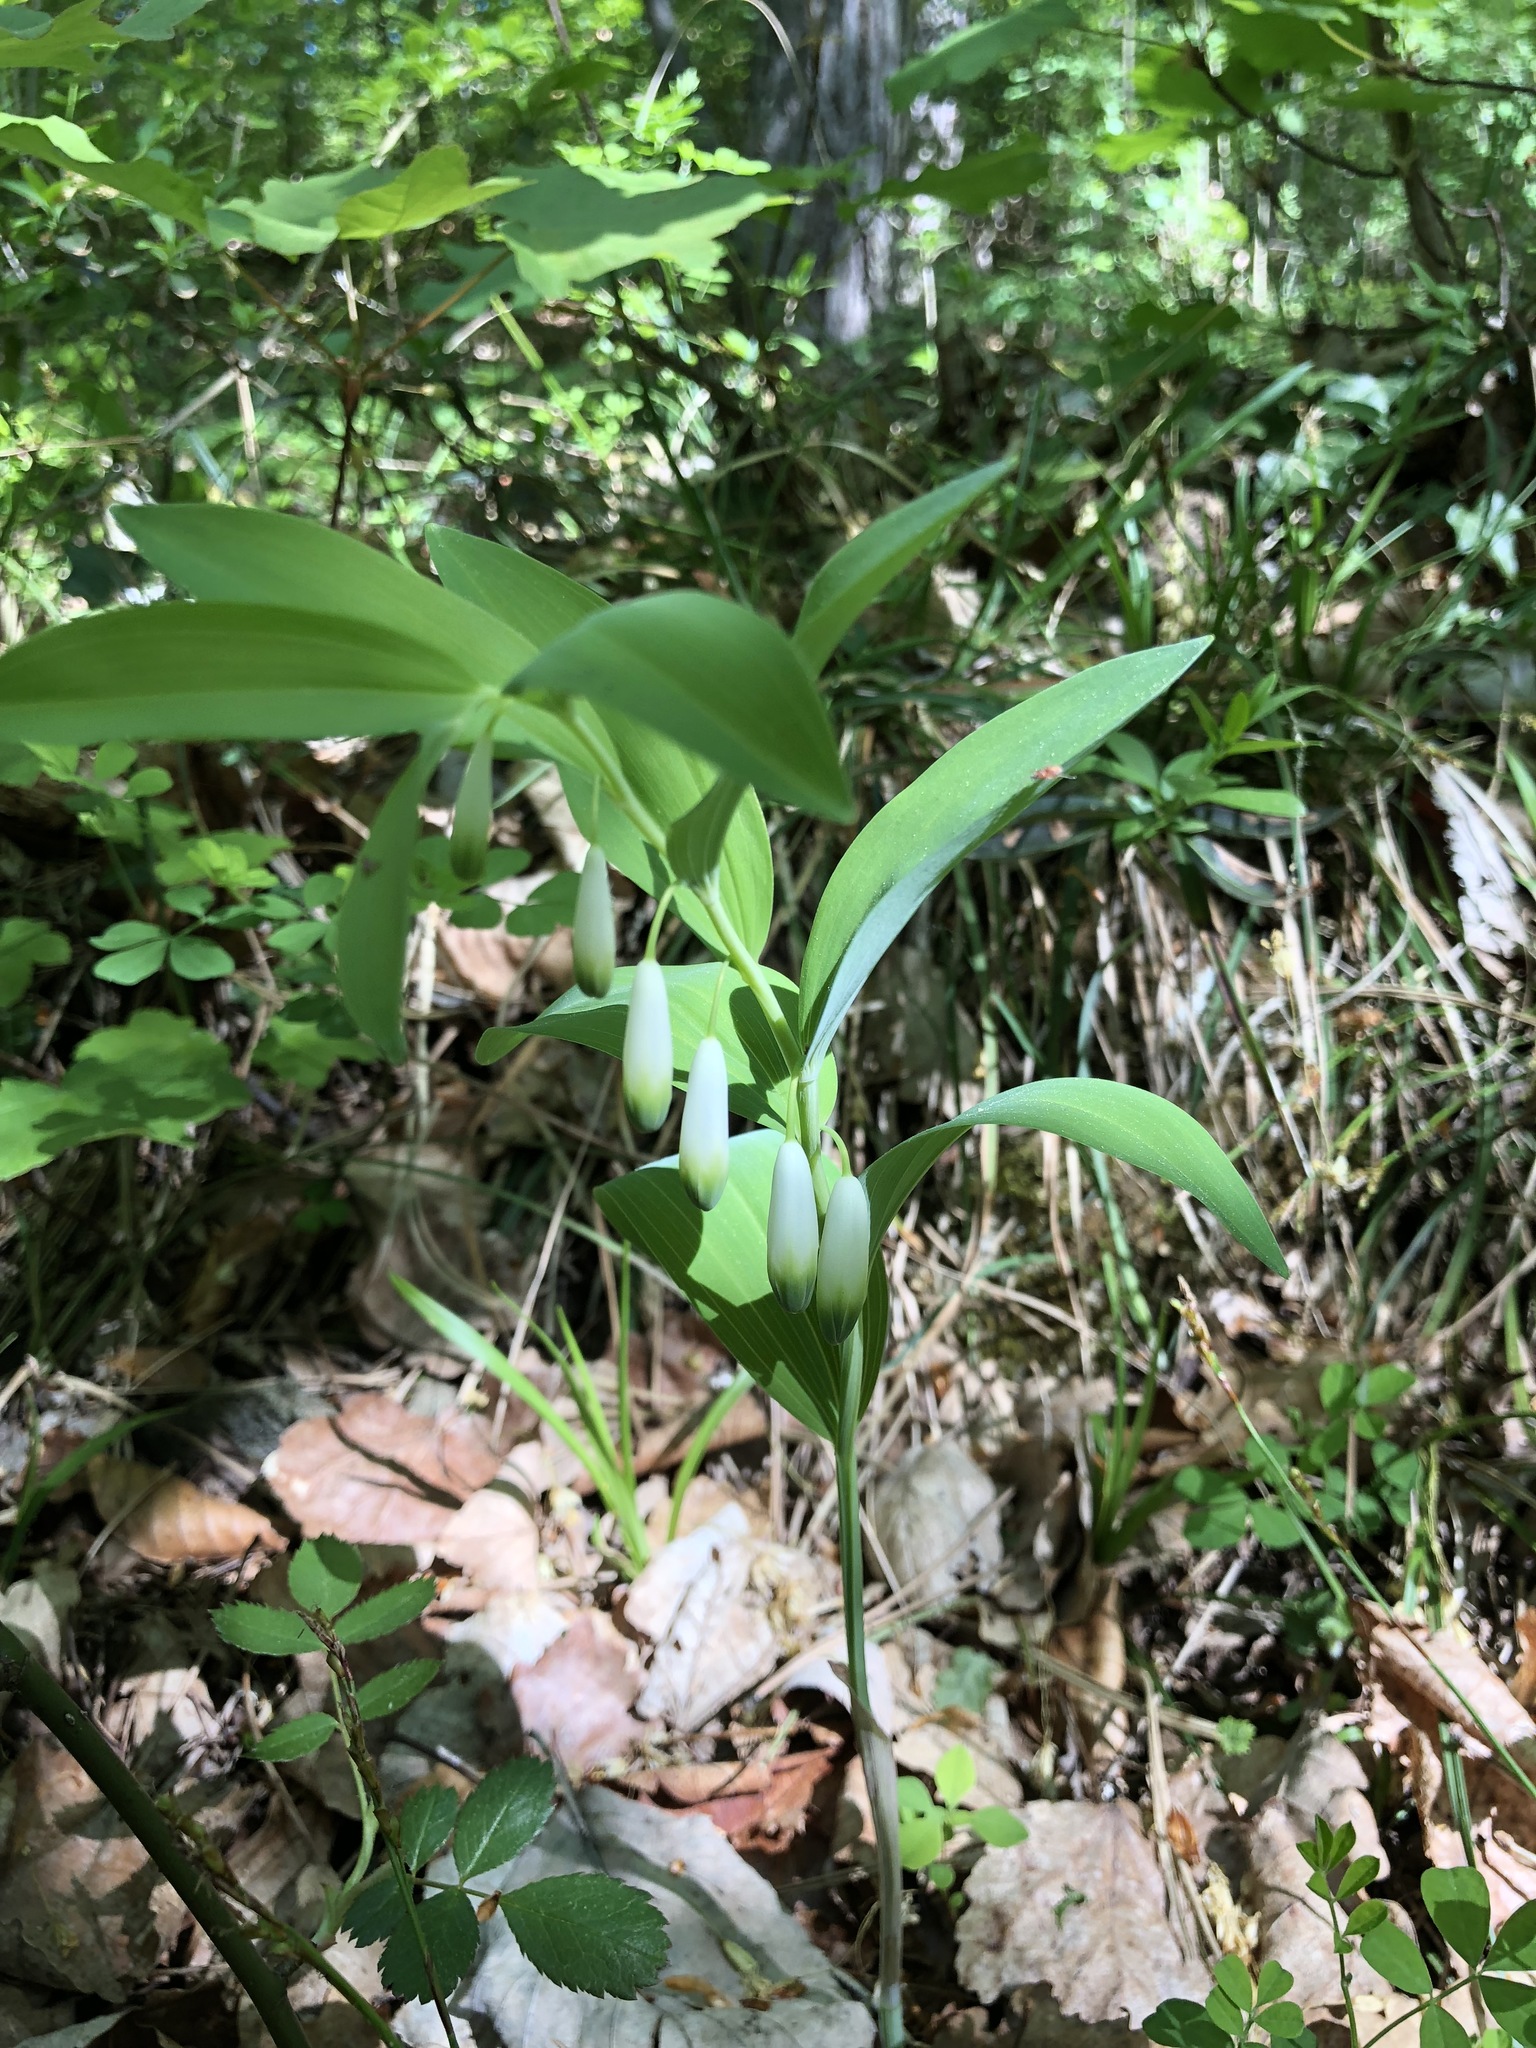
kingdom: Plantae
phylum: Tracheophyta
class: Liliopsida
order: Asparagales
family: Asparagaceae
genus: Polygonatum
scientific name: Polygonatum odoratum
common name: Angular solomon's-seal
